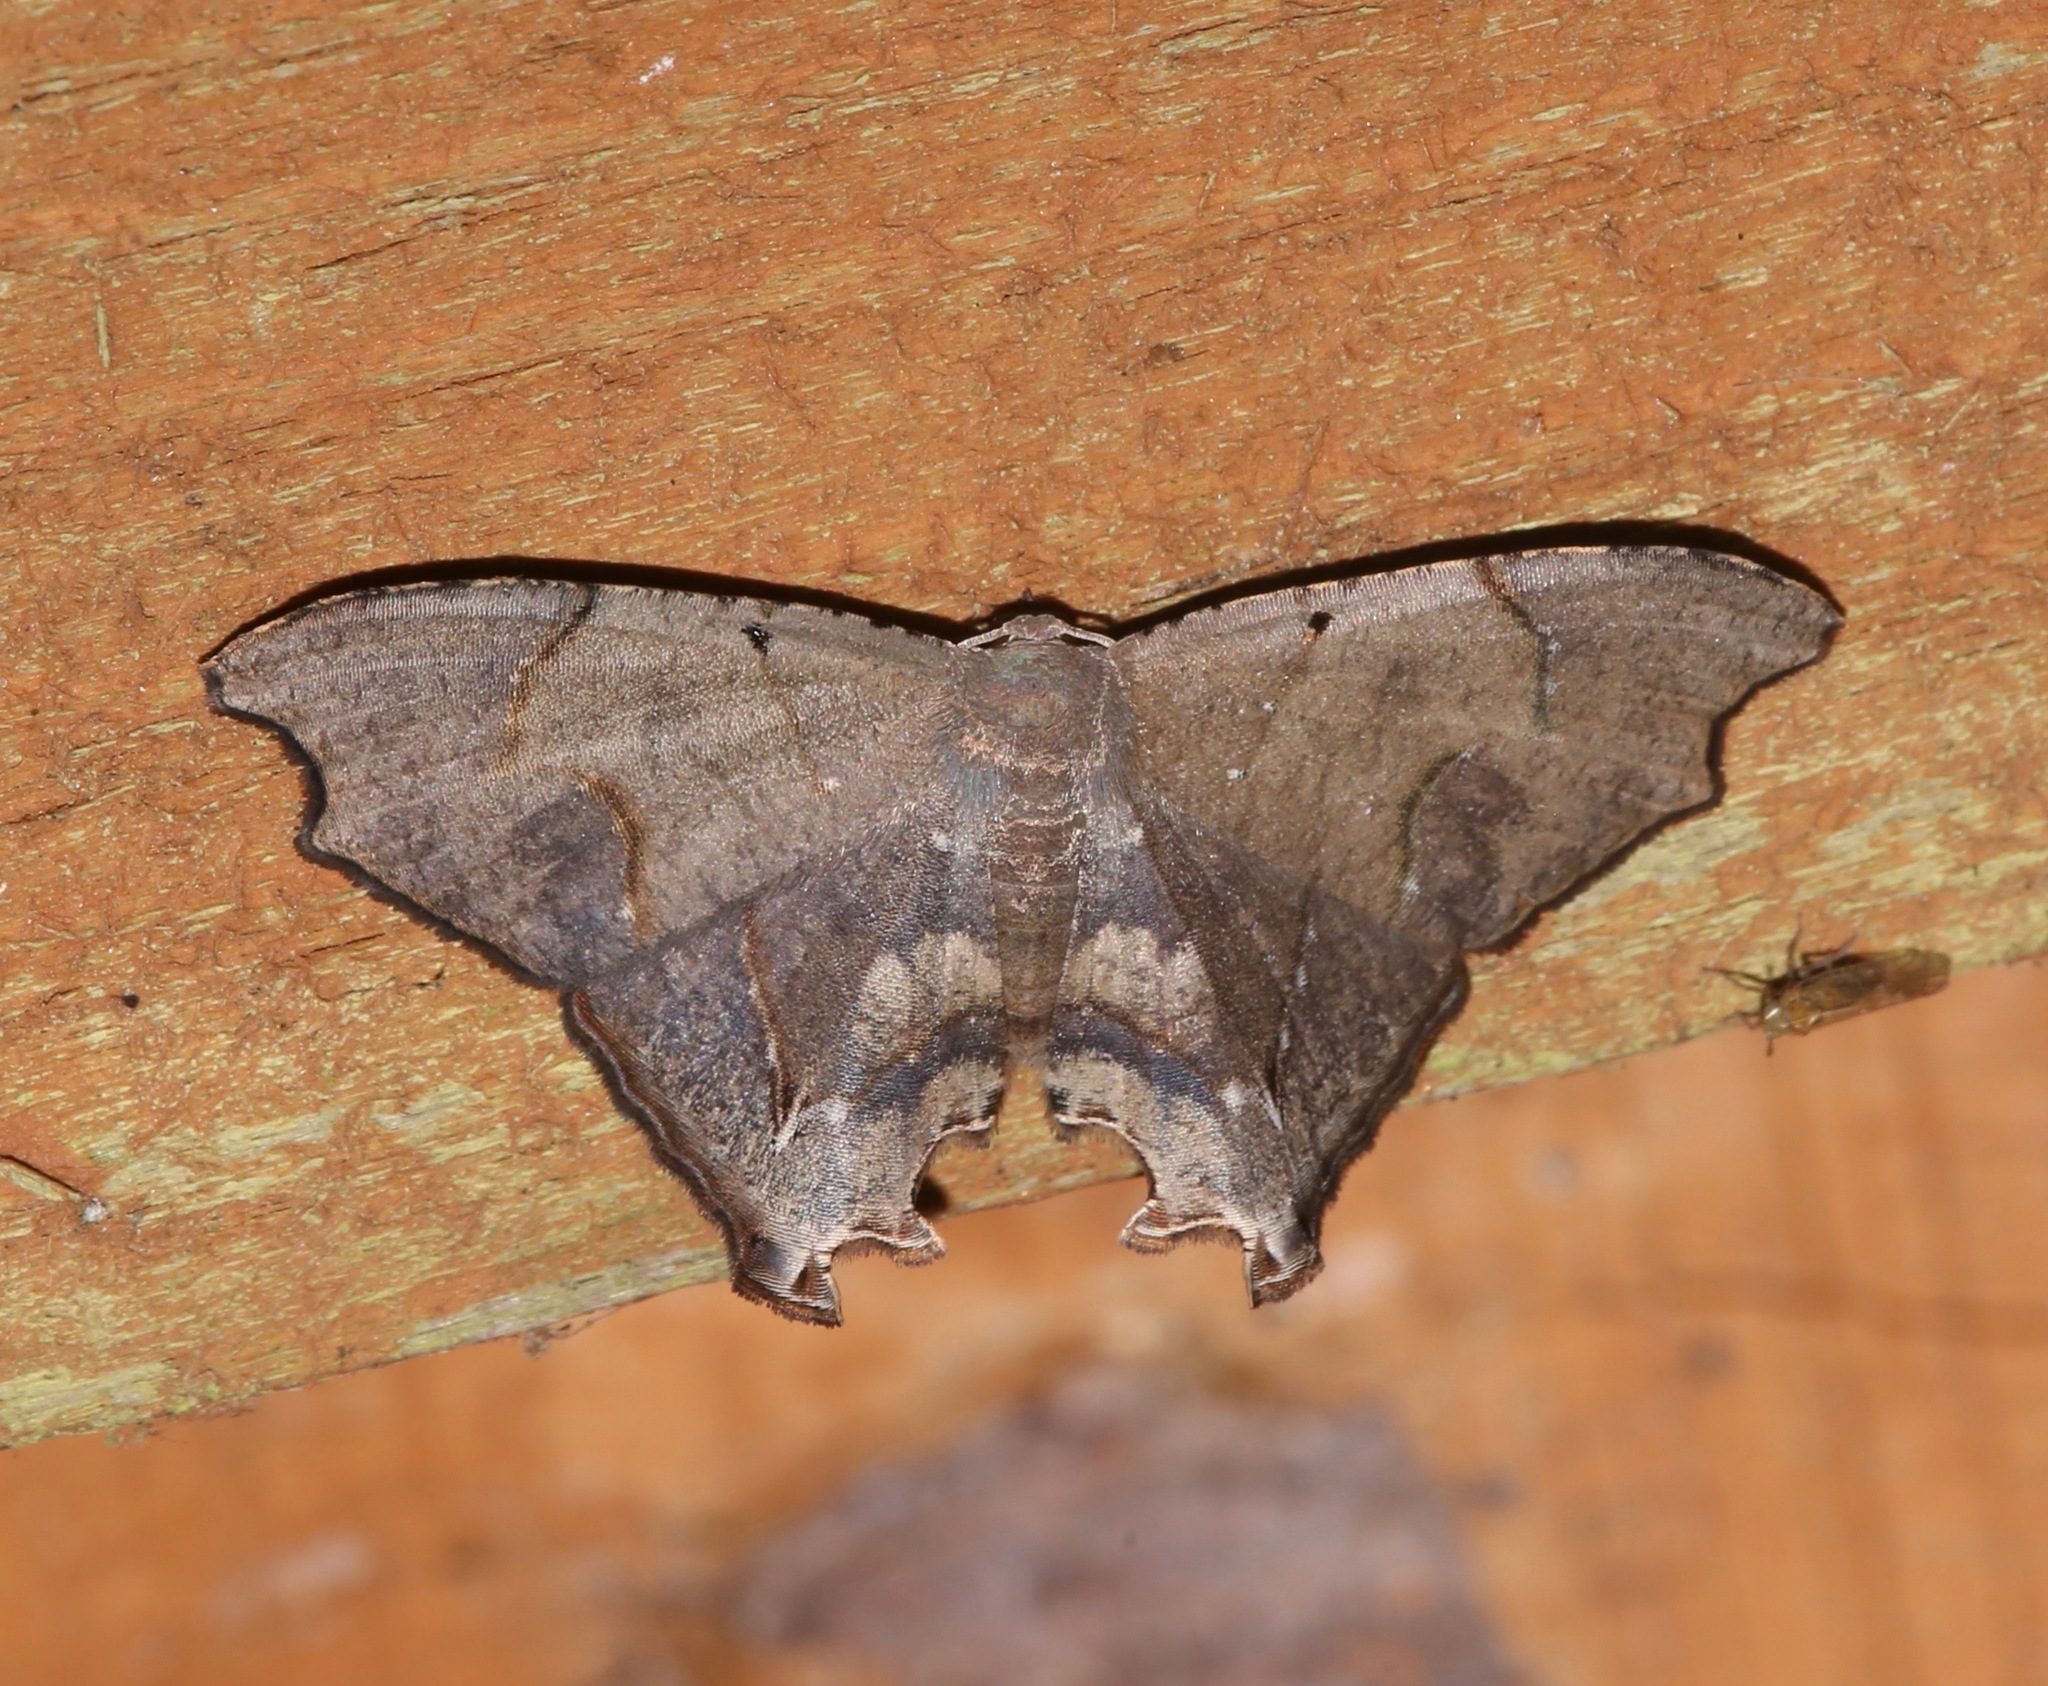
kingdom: Animalia
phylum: Arthropoda
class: Insecta
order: Lepidoptera
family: Uraniidae
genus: Trotorhombia
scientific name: Trotorhombia metachromata
